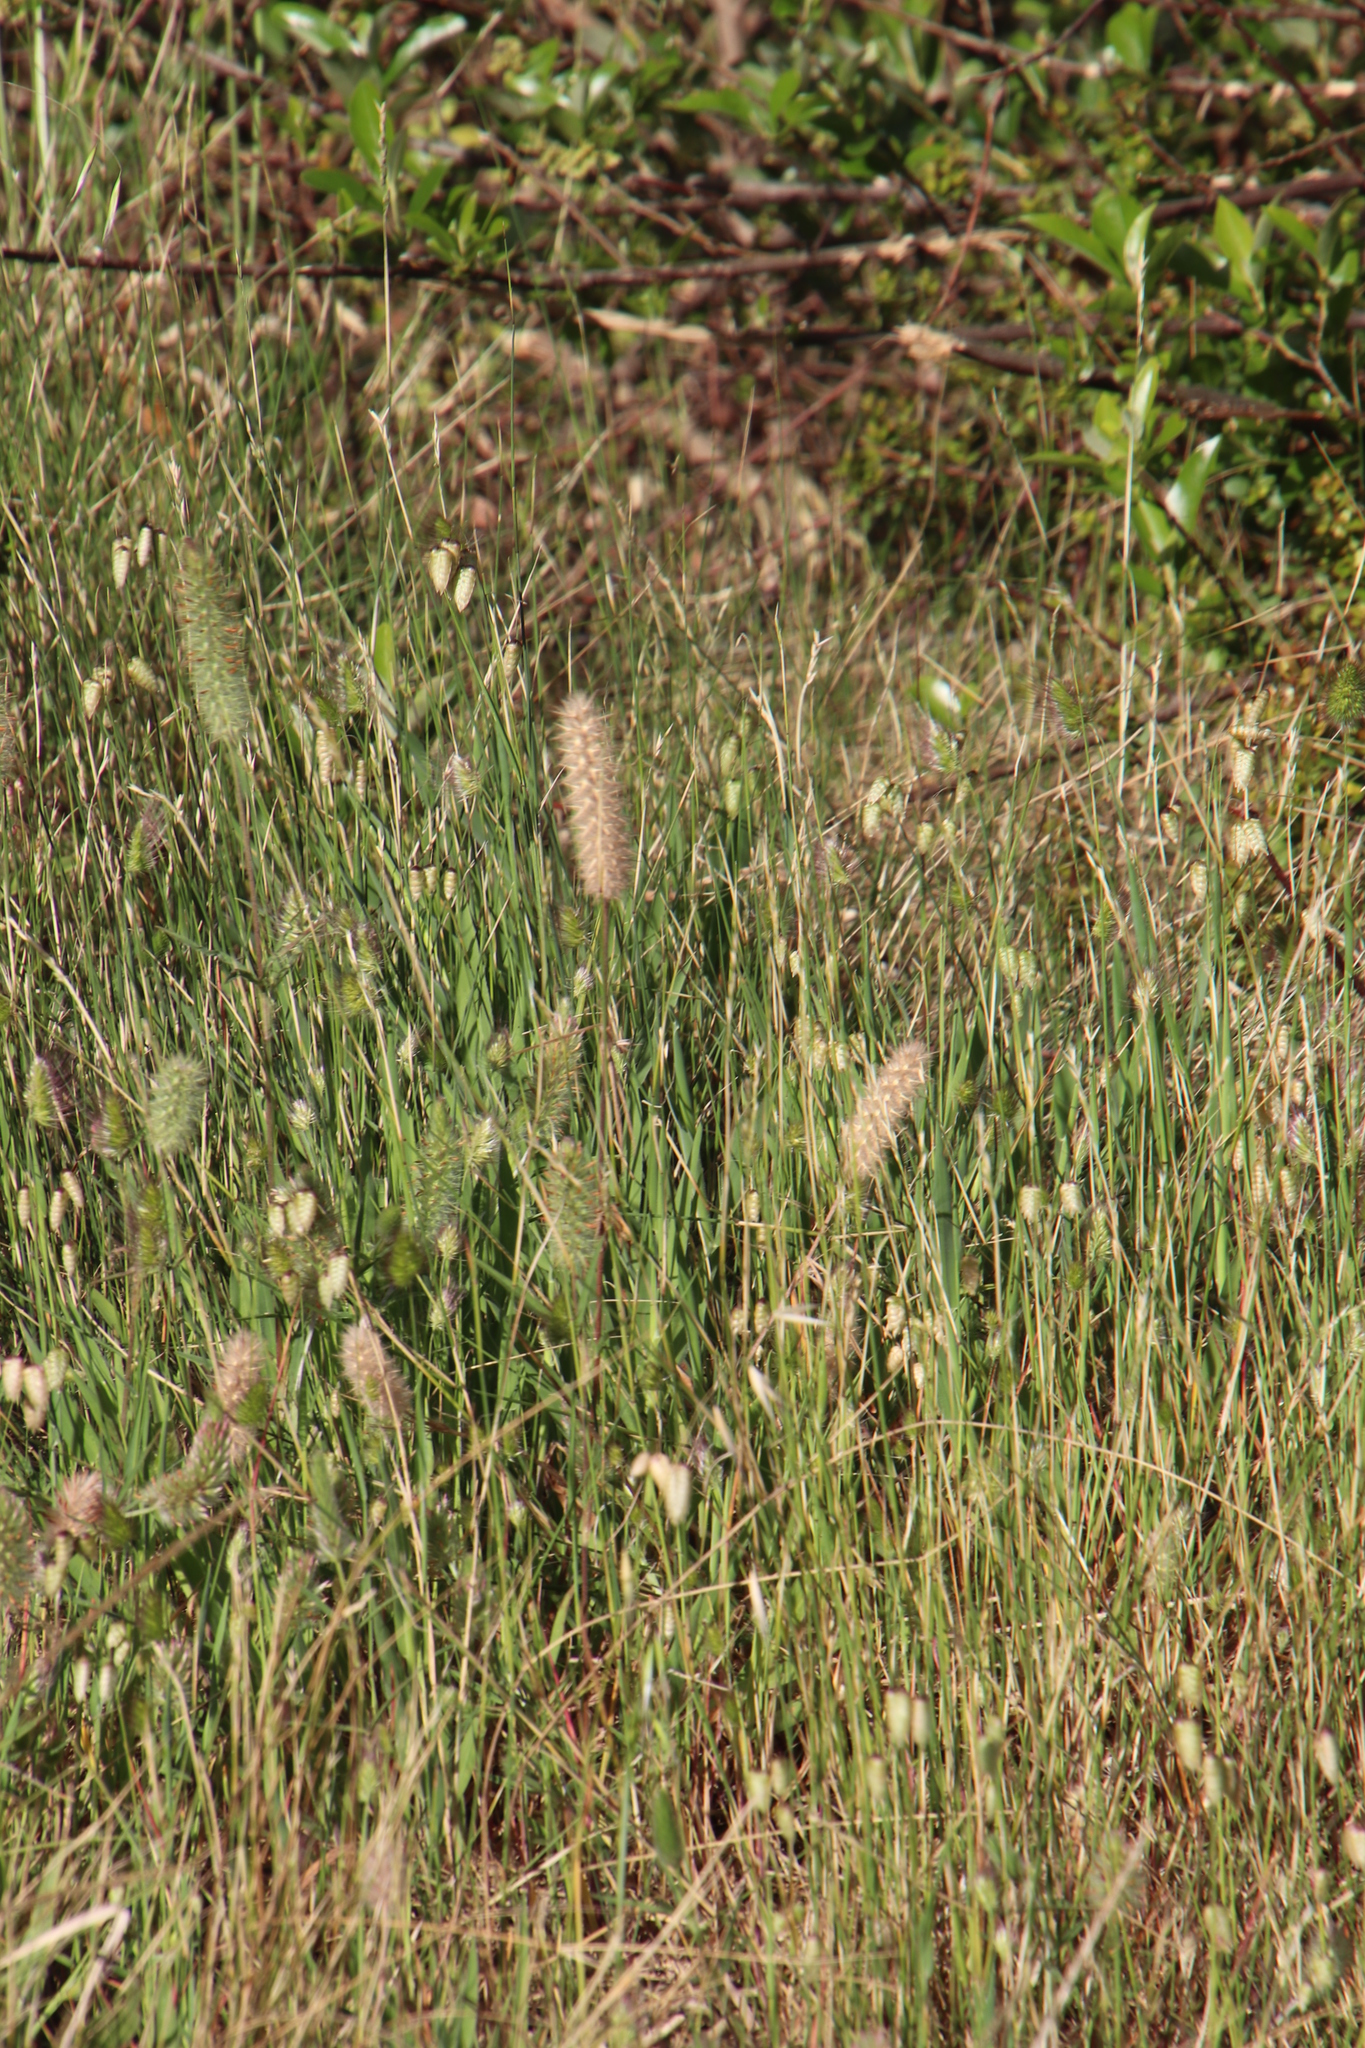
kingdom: Plantae
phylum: Tracheophyta
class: Magnoliopsida
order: Fabales
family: Fabaceae
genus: Trifolium
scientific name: Trifolium angustifolium
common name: Narrow clover
